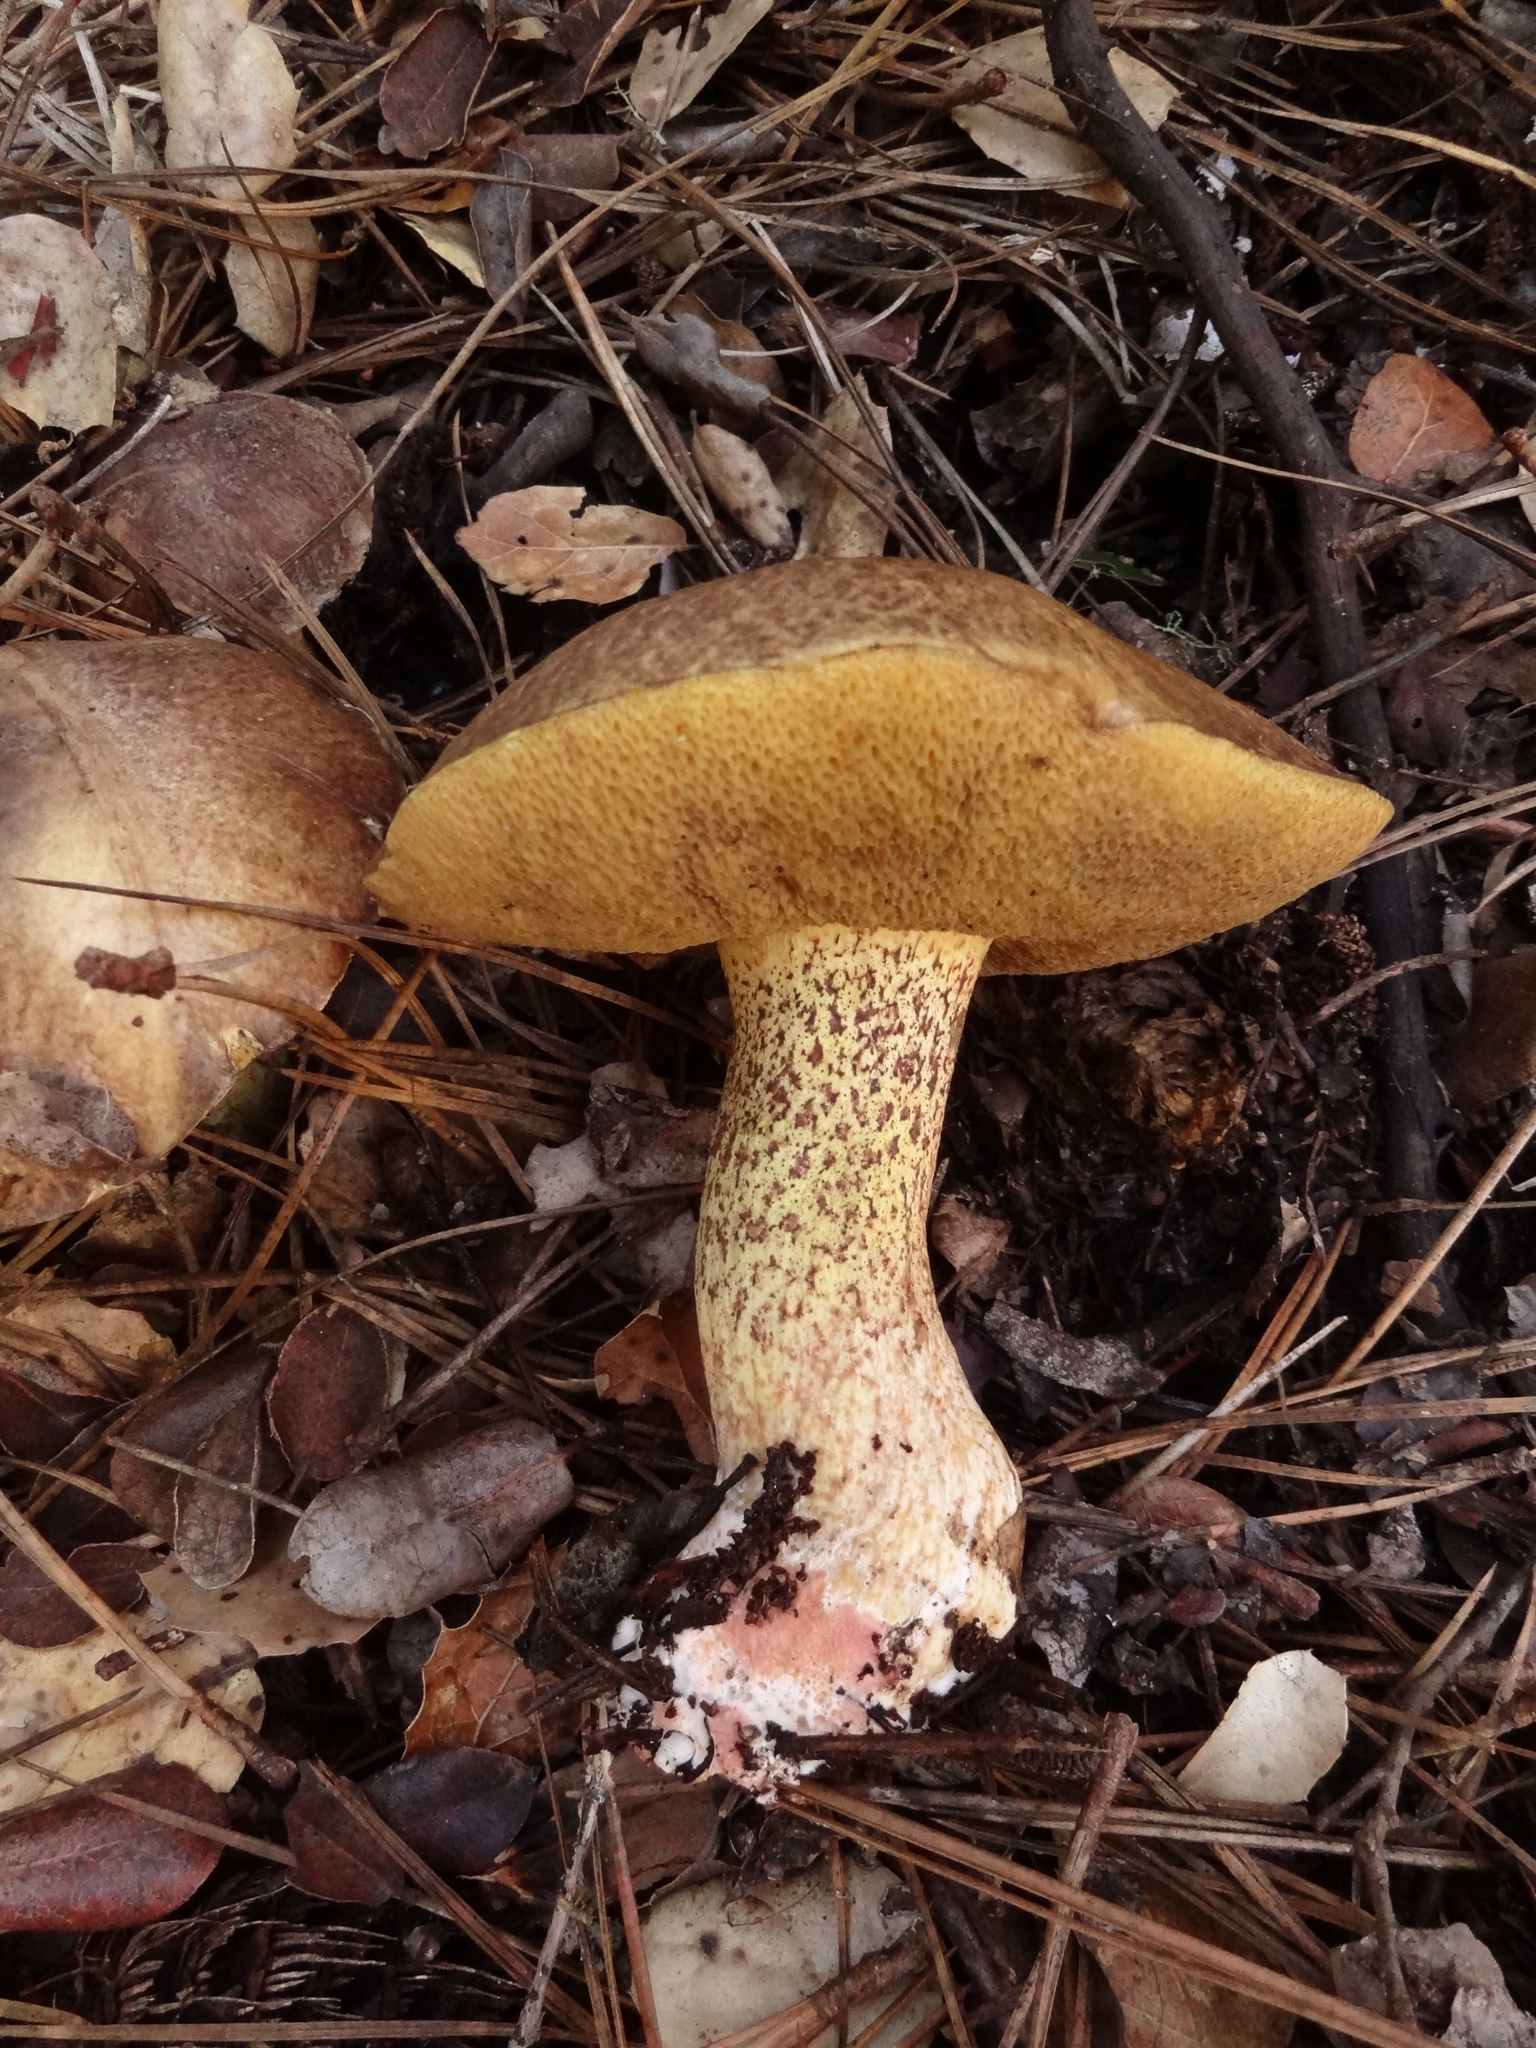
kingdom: Fungi
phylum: Basidiomycota
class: Agaricomycetes
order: Boletales
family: Suillaceae
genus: Suillus
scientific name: Suillus pungens
